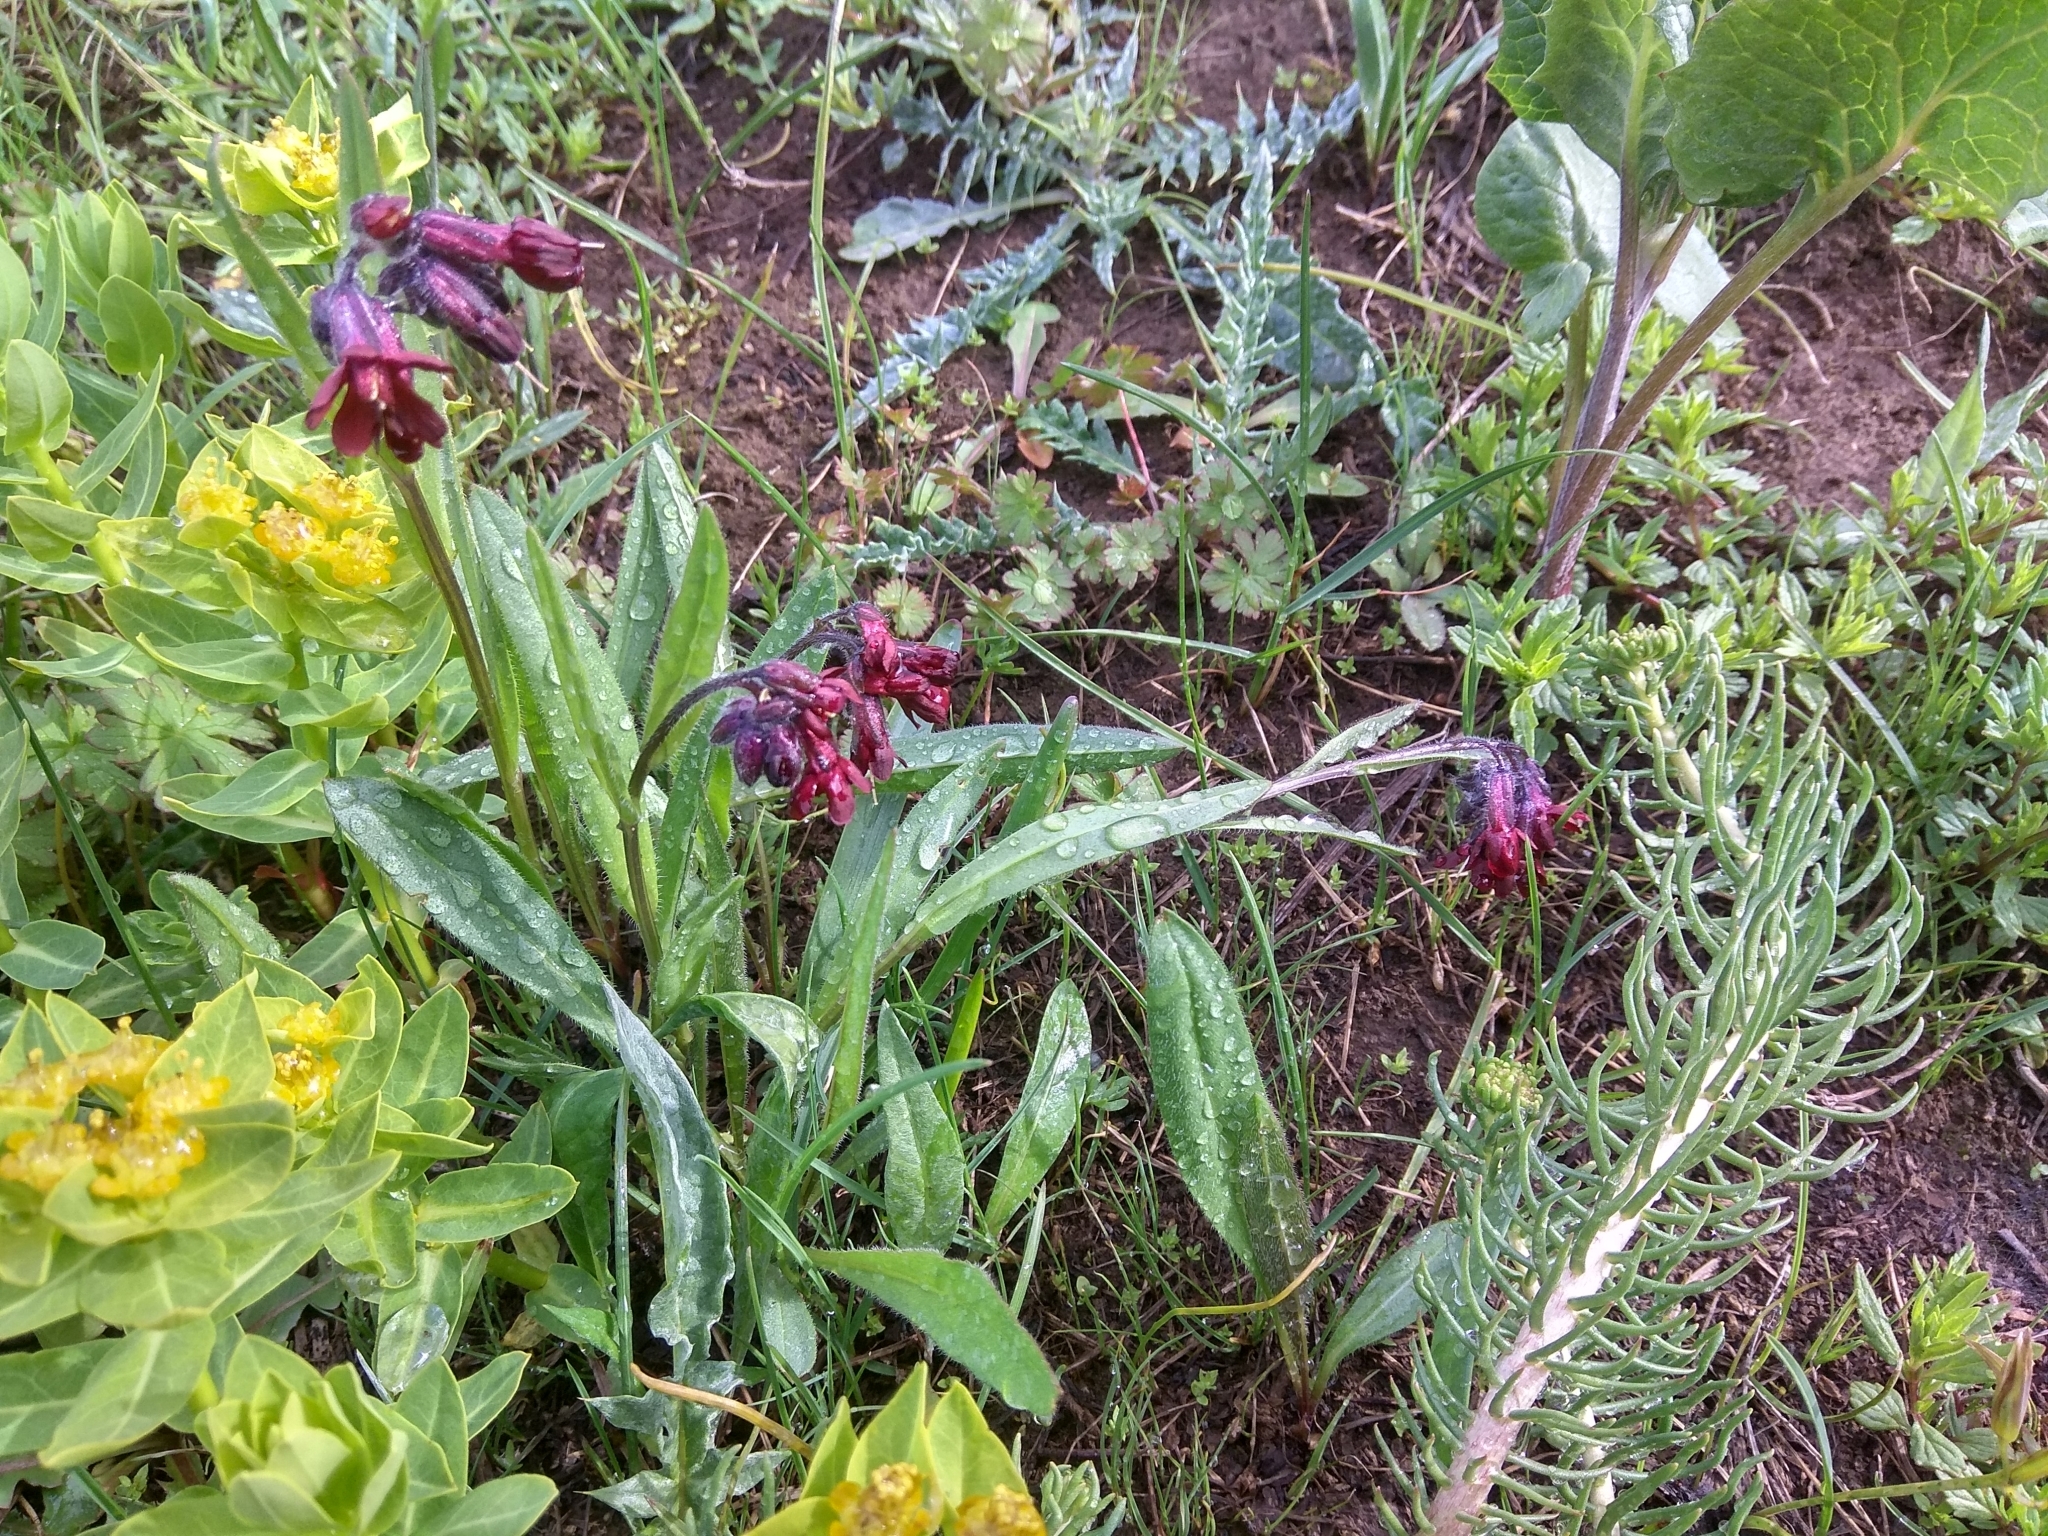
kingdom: Plantae
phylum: Tracheophyta
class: Magnoliopsida
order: Boraginales
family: Boraginaceae
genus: Lindelofia
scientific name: Lindelofia olgae
